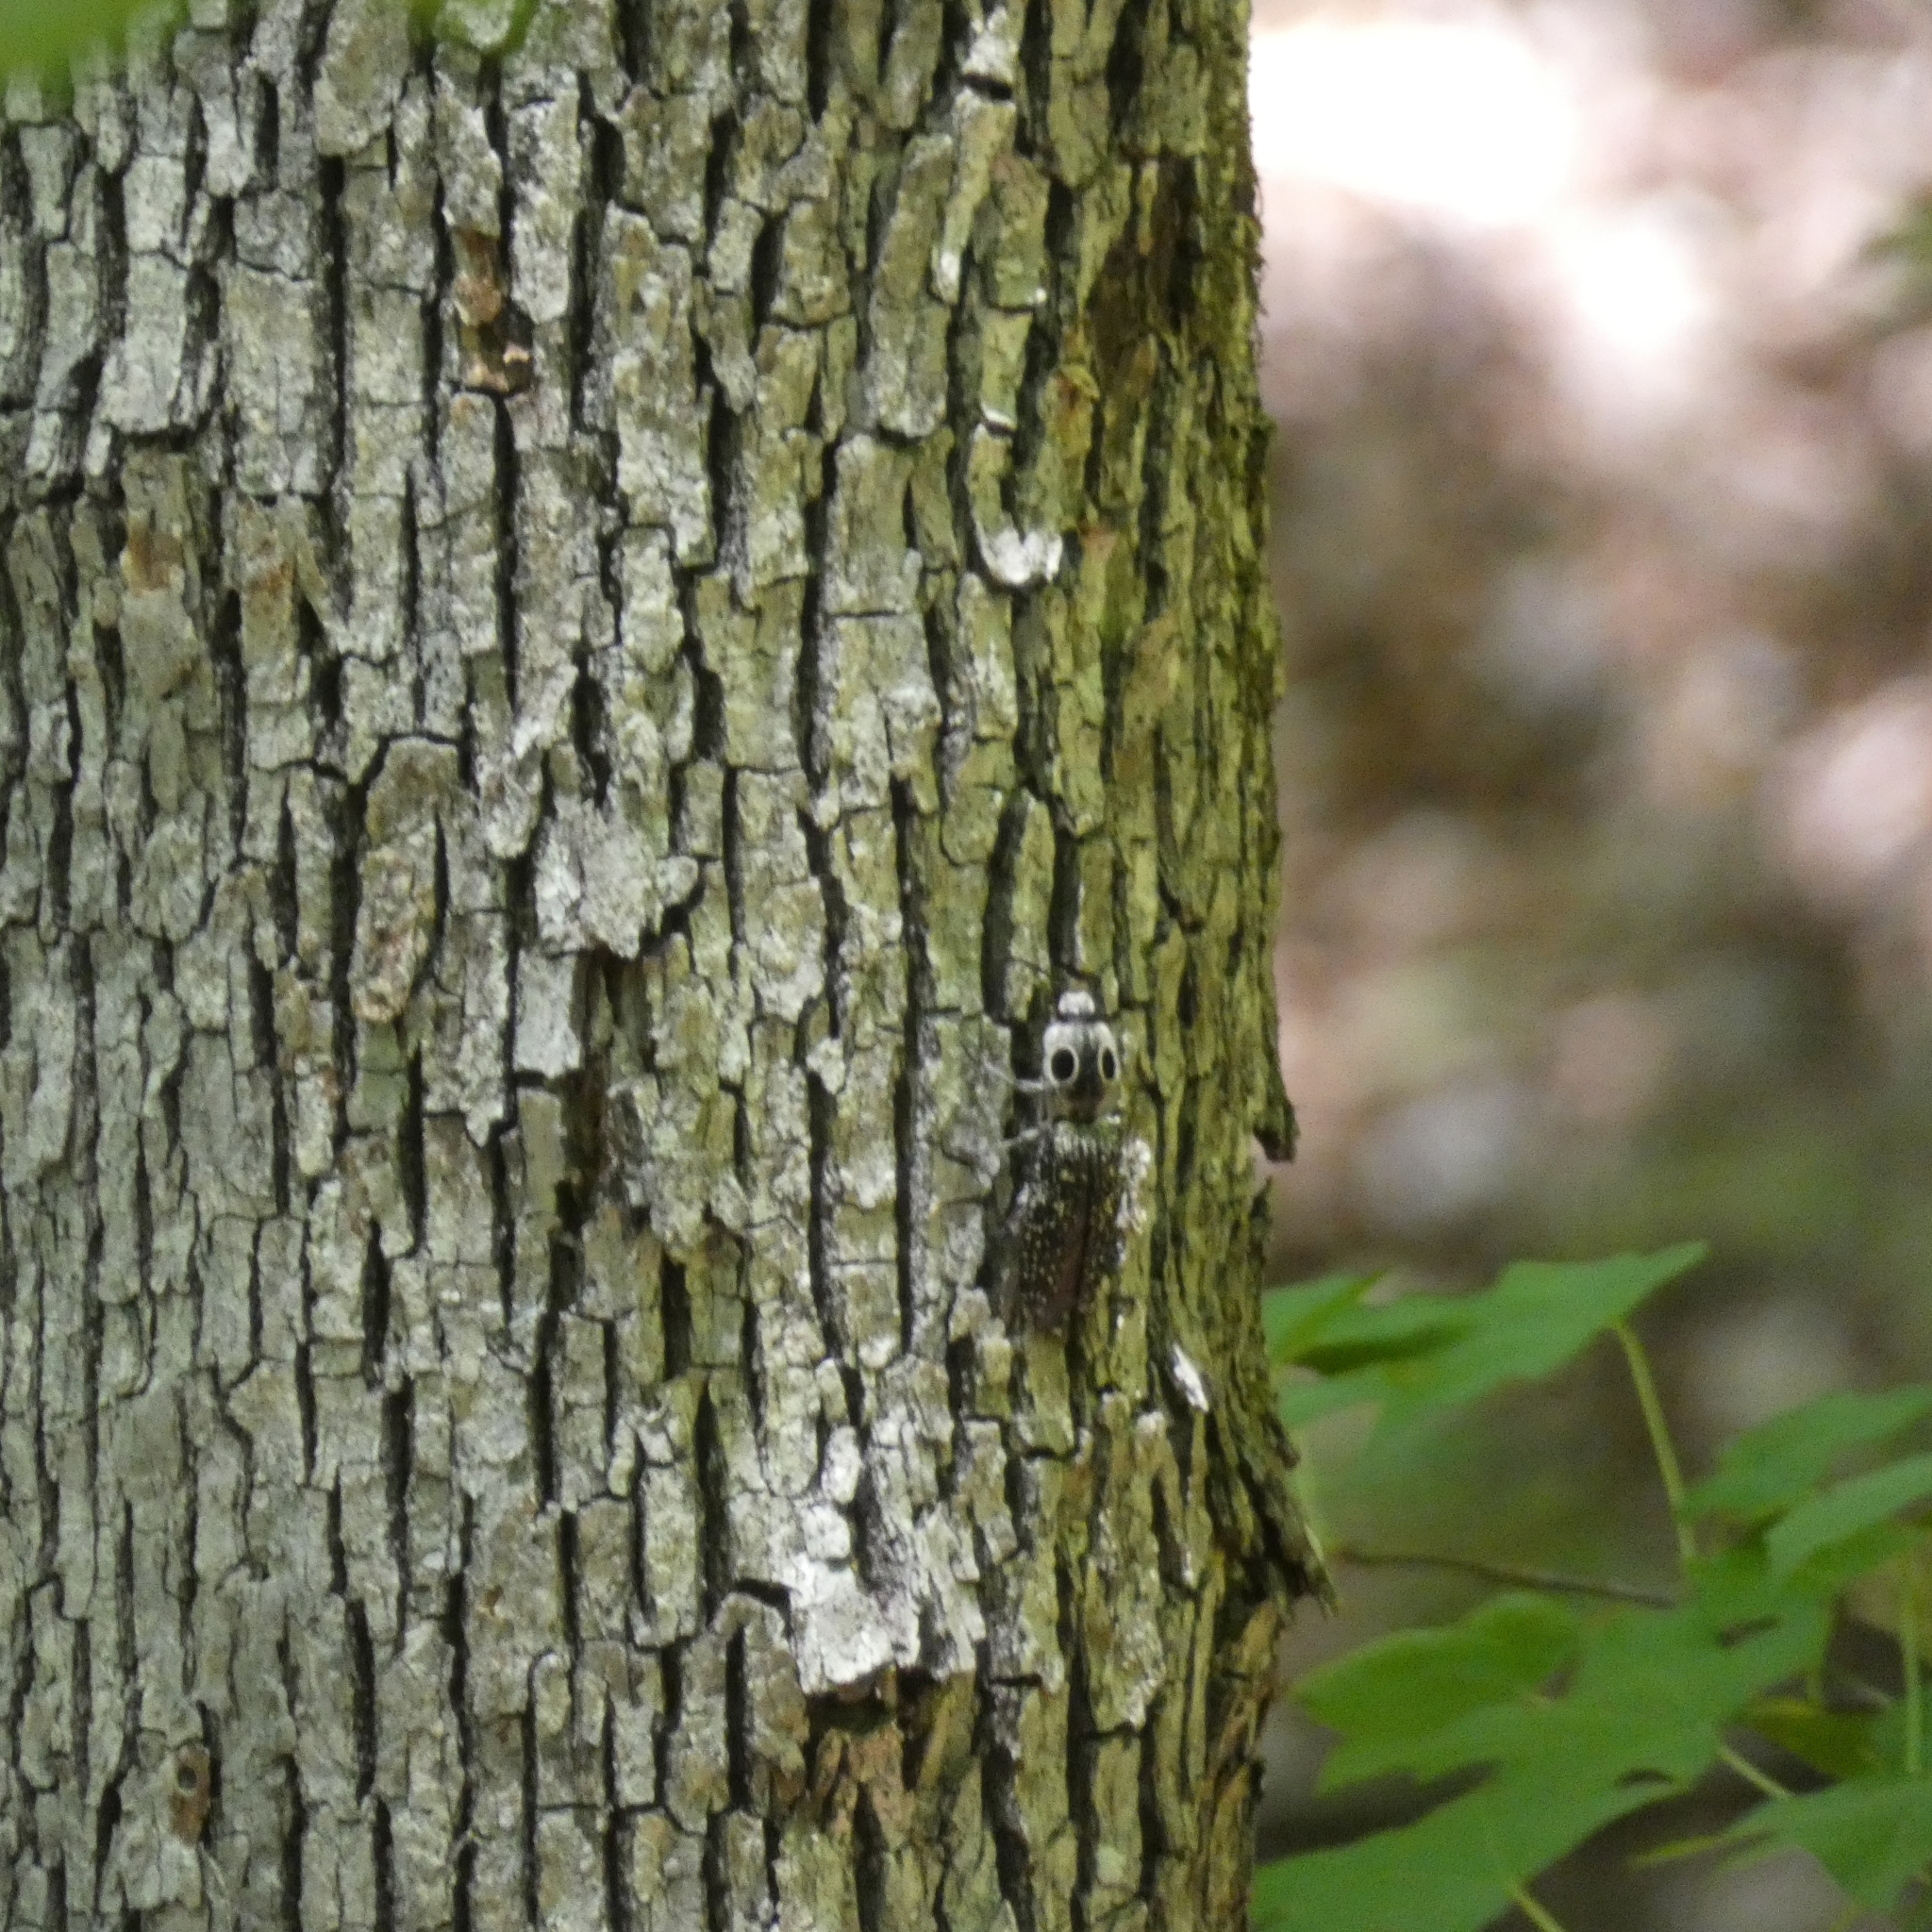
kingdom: Animalia
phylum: Arthropoda
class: Insecta
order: Coleoptera
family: Elateridae
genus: Alaus
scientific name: Alaus oculatus
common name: Eastern eyed click beetle
